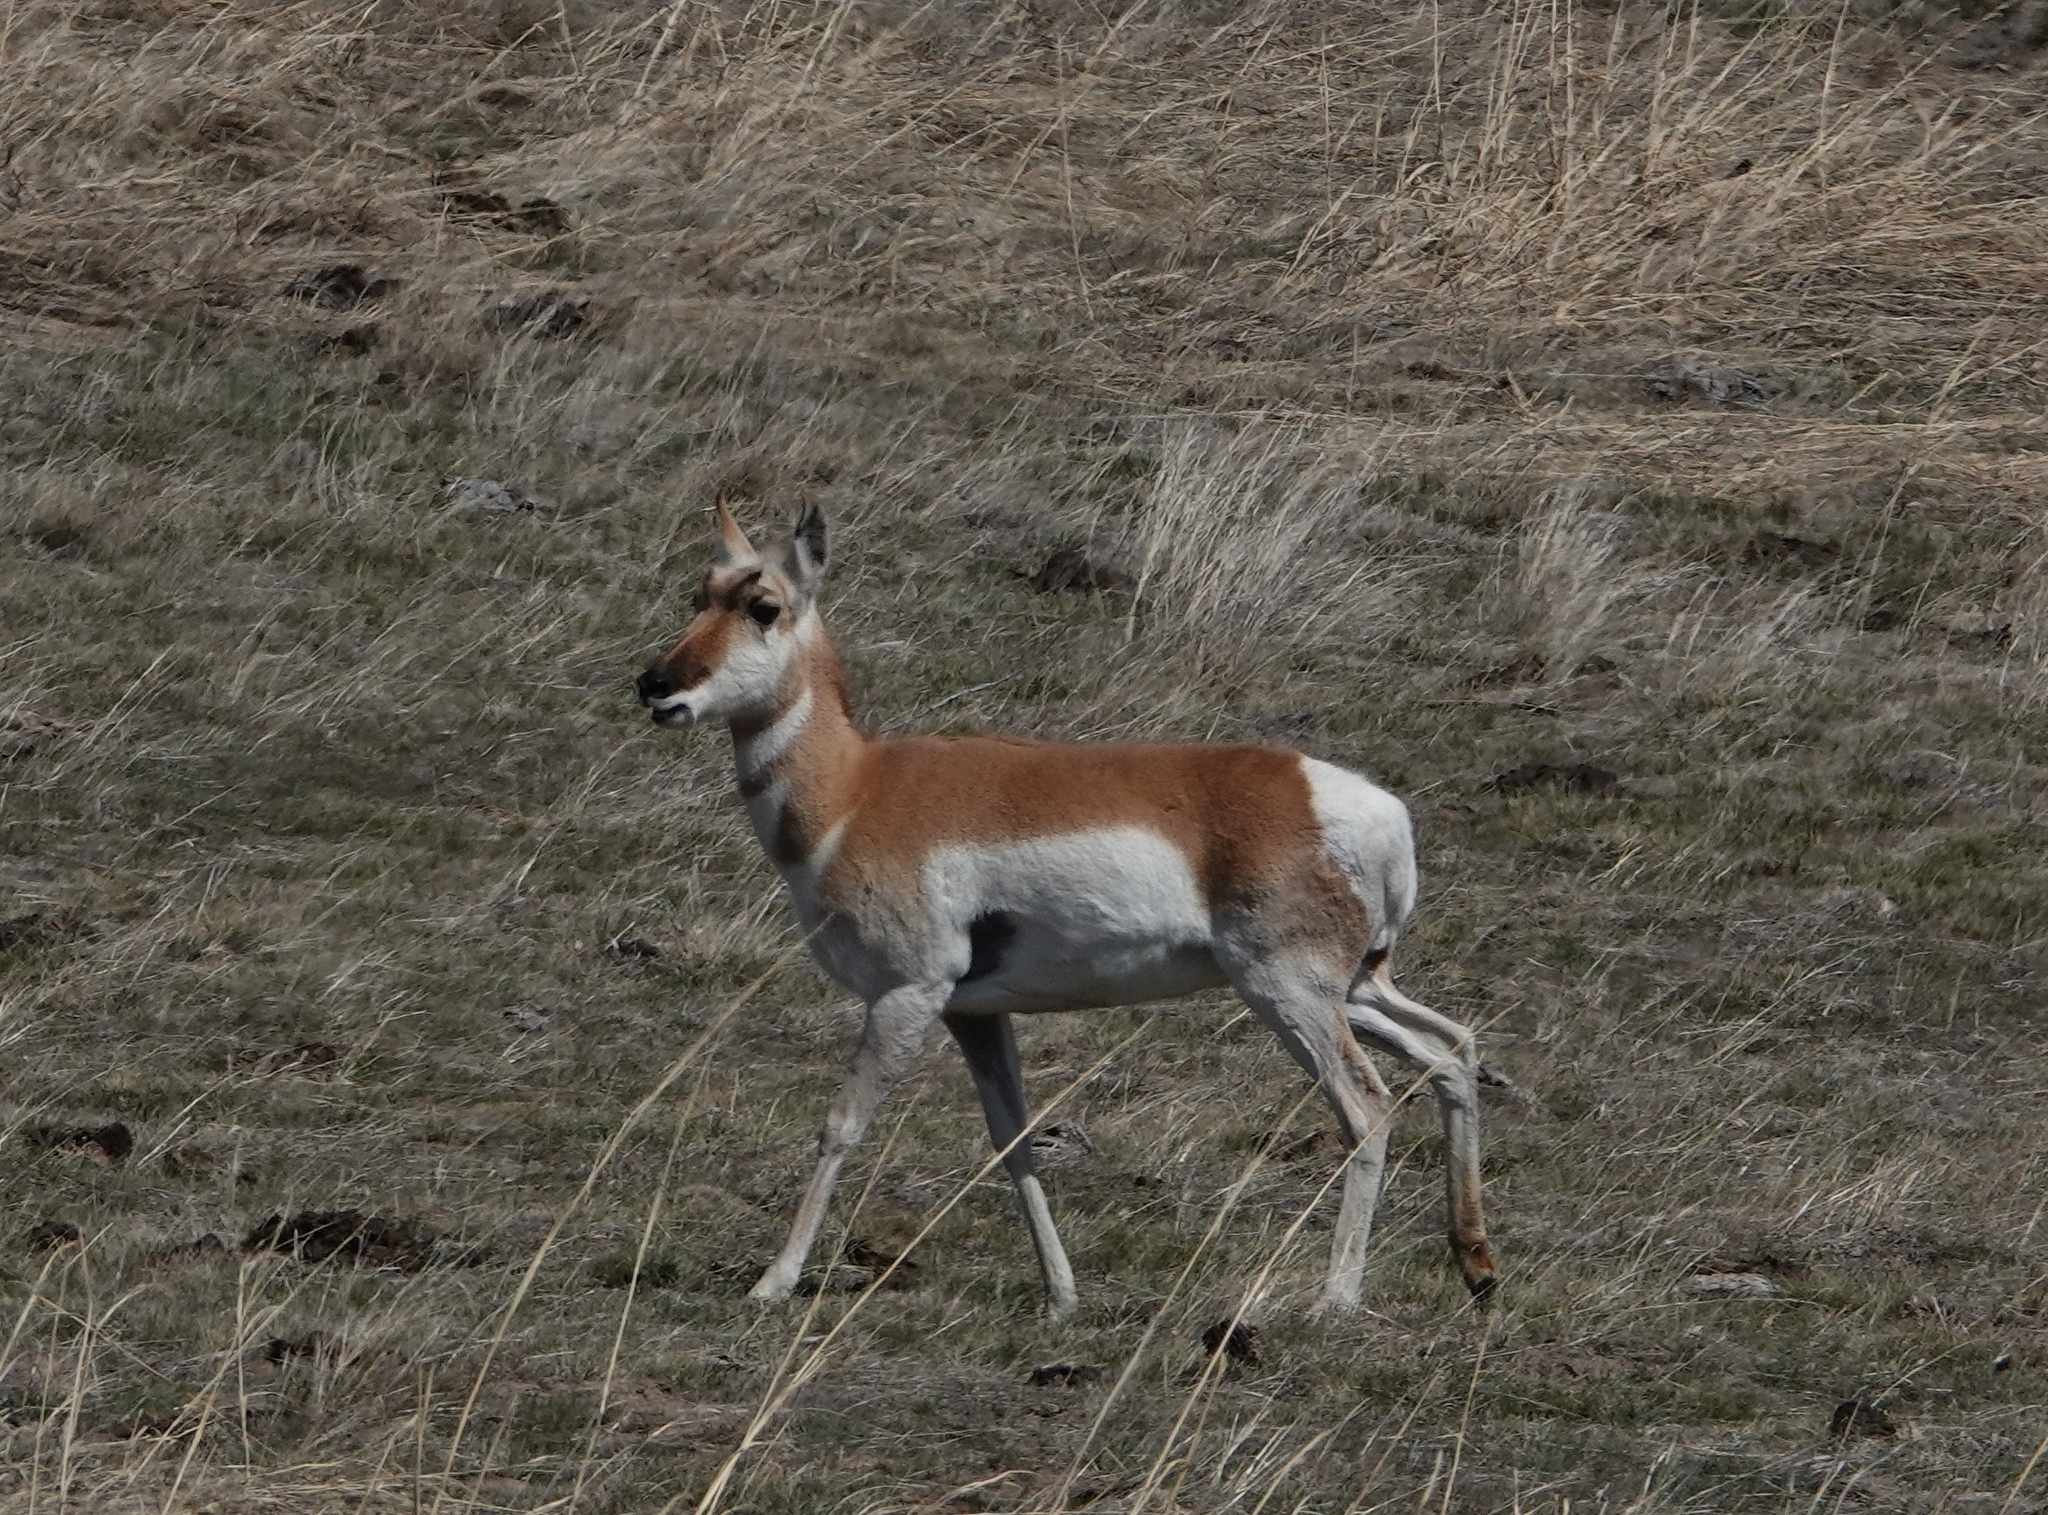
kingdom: Animalia
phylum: Chordata
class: Mammalia
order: Artiodactyla
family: Antilocapridae
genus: Antilocapra
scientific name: Antilocapra americana
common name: Pronghorn
